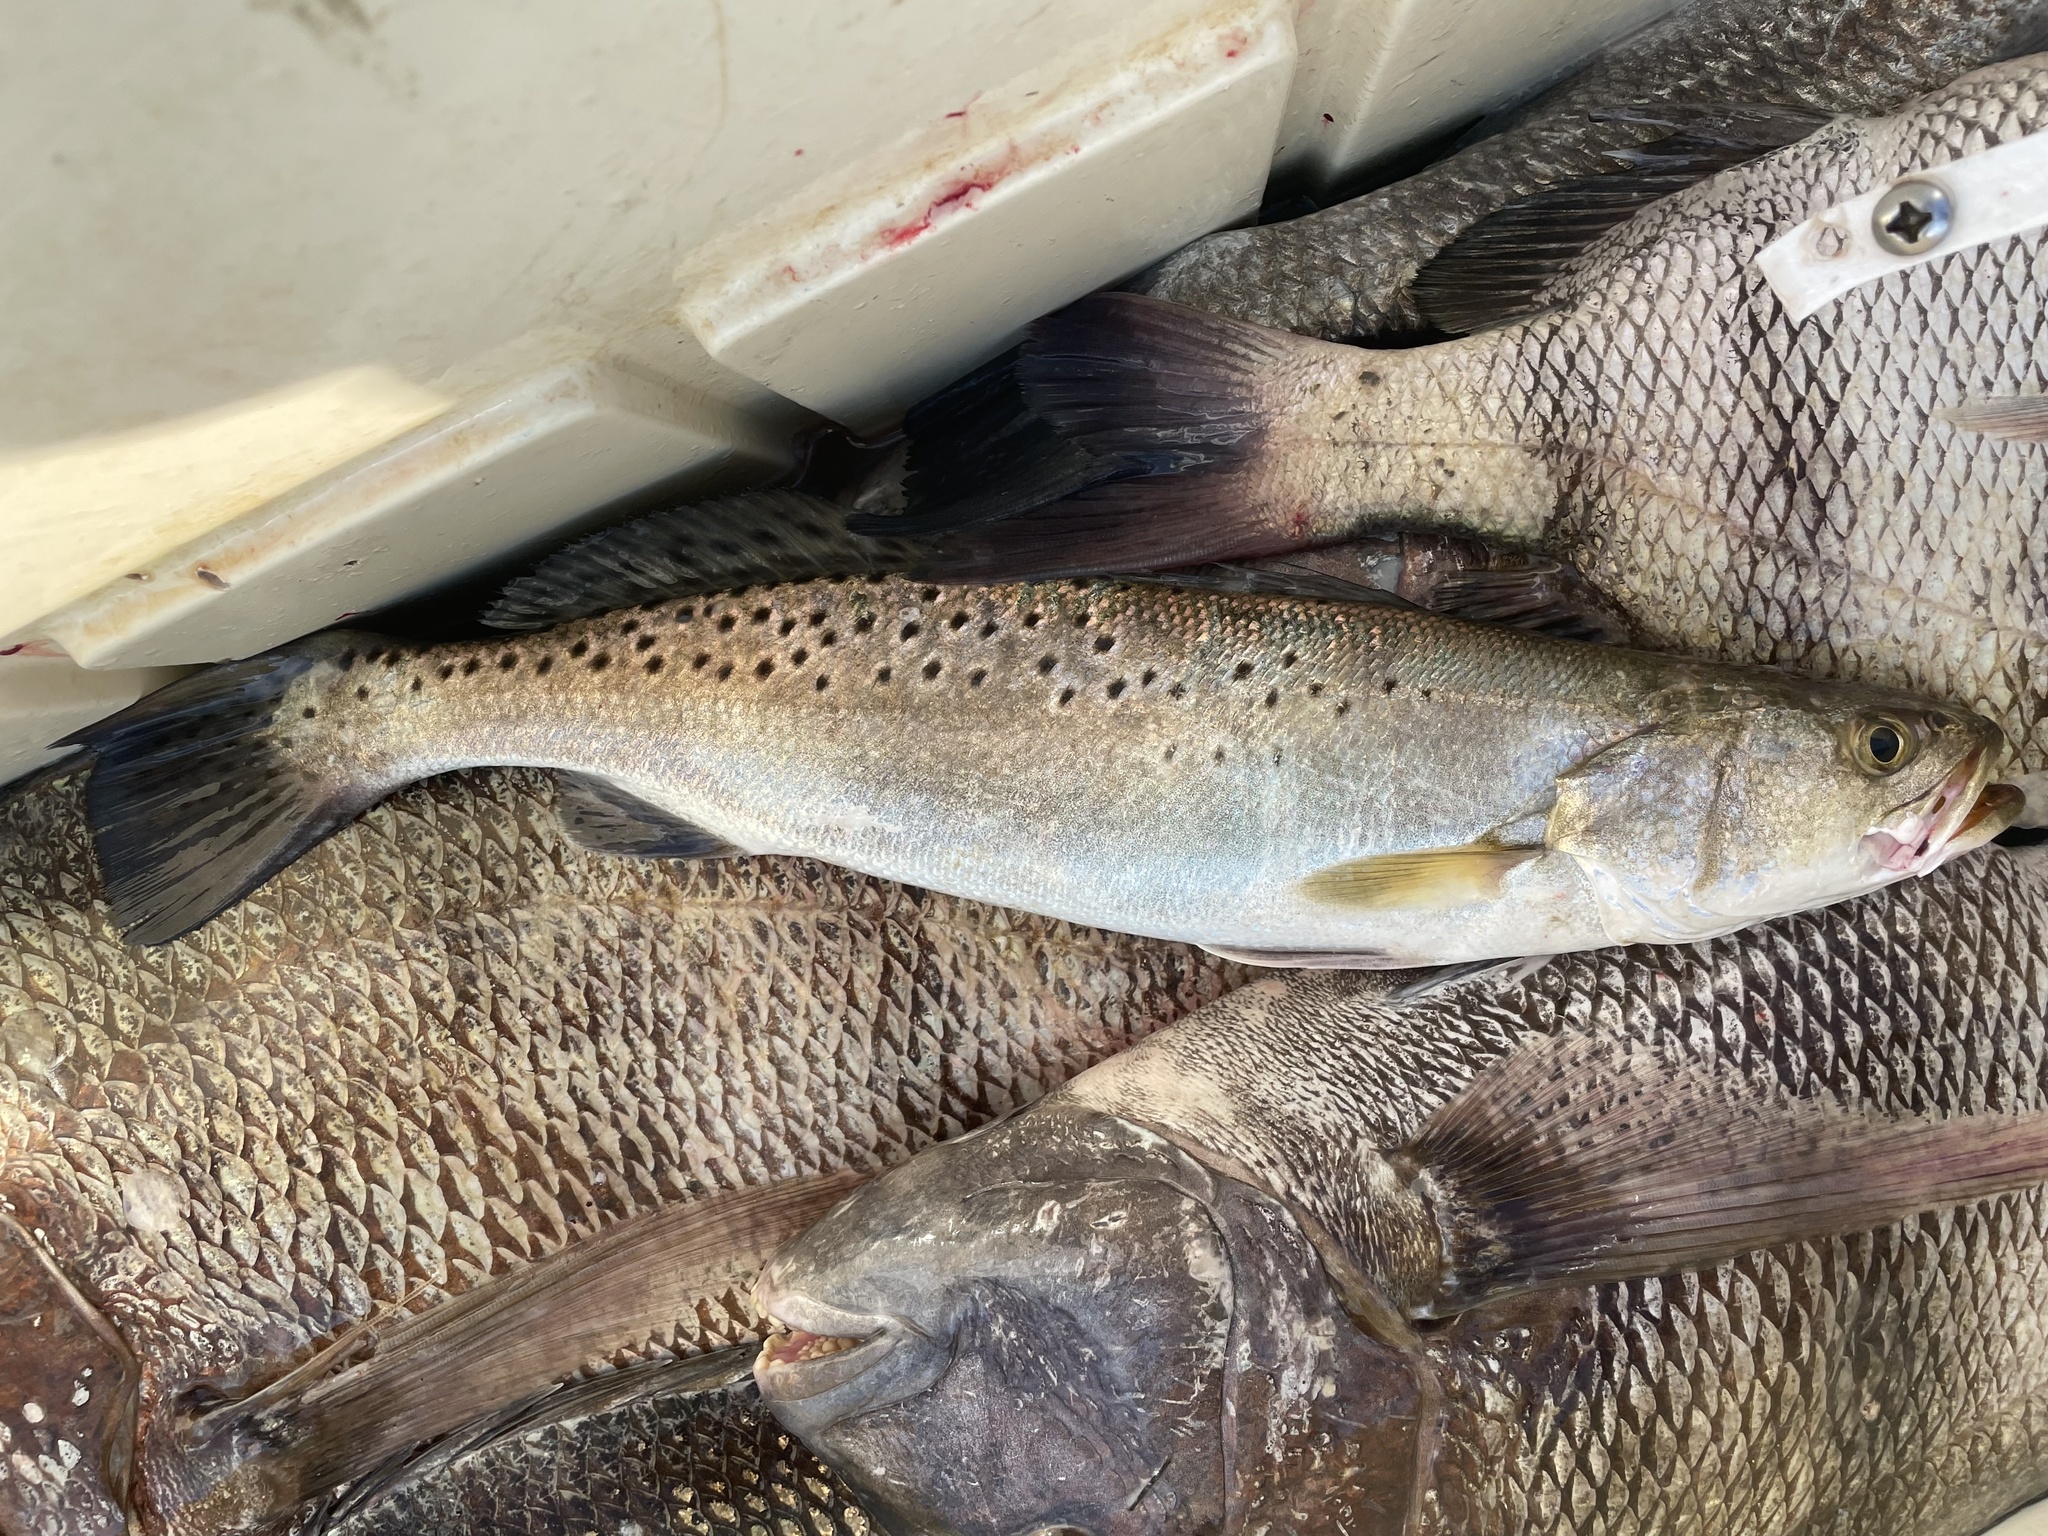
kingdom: Animalia
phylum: Chordata
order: Perciformes
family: Sciaenidae
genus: Cynoscion
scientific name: Cynoscion nebulosus
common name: Spotted seatrout
